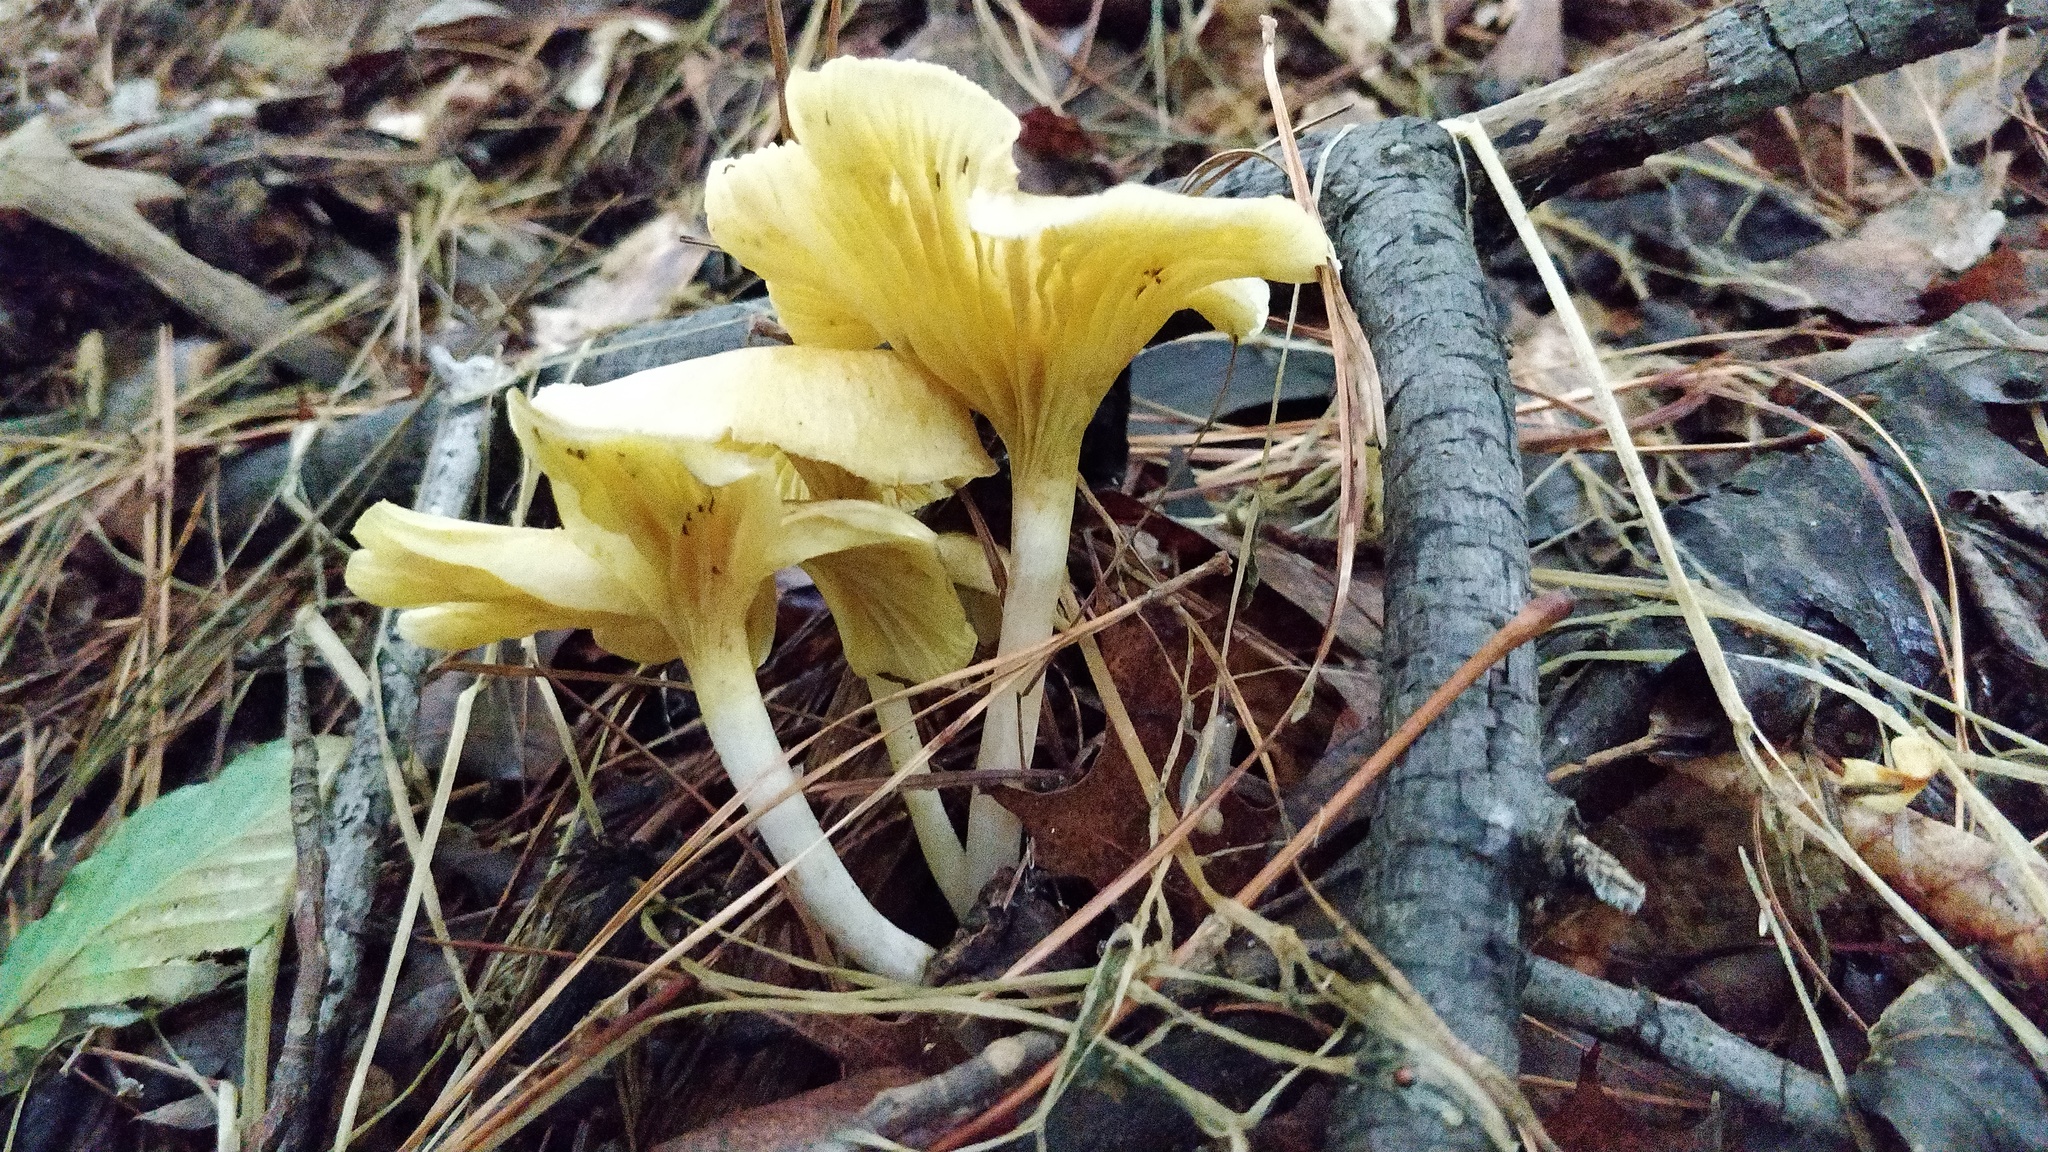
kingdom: Fungi
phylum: Basidiomycota
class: Agaricomycetes
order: Agaricales
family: Marasmiaceae
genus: Gerronema
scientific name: Gerronema strombodes
